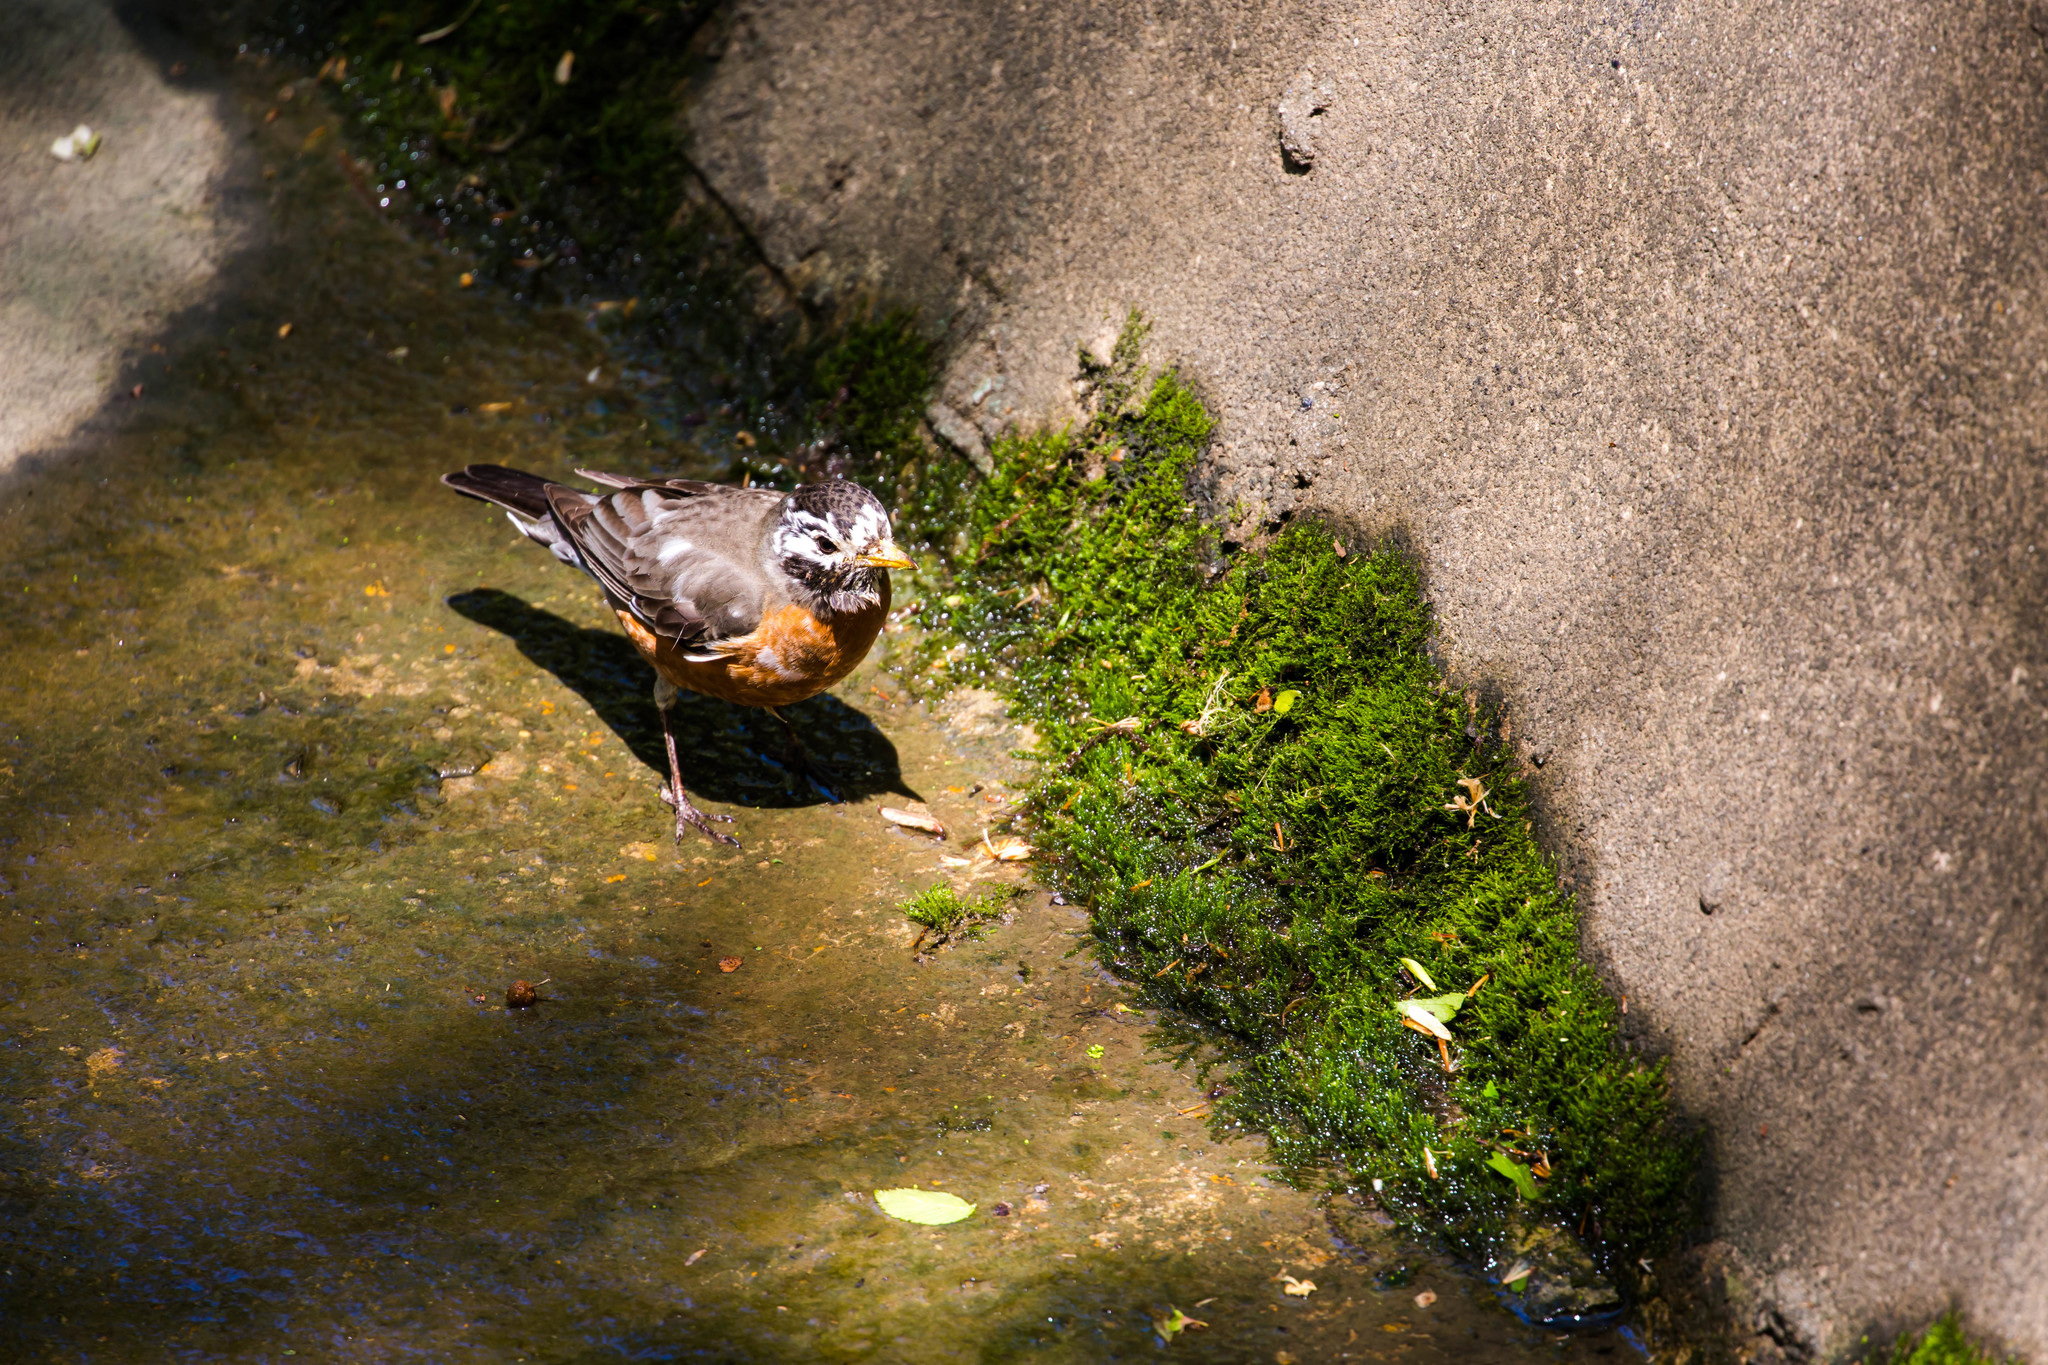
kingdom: Animalia
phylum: Chordata
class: Aves
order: Passeriformes
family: Turdidae
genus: Turdus
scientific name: Turdus migratorius
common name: American robin
